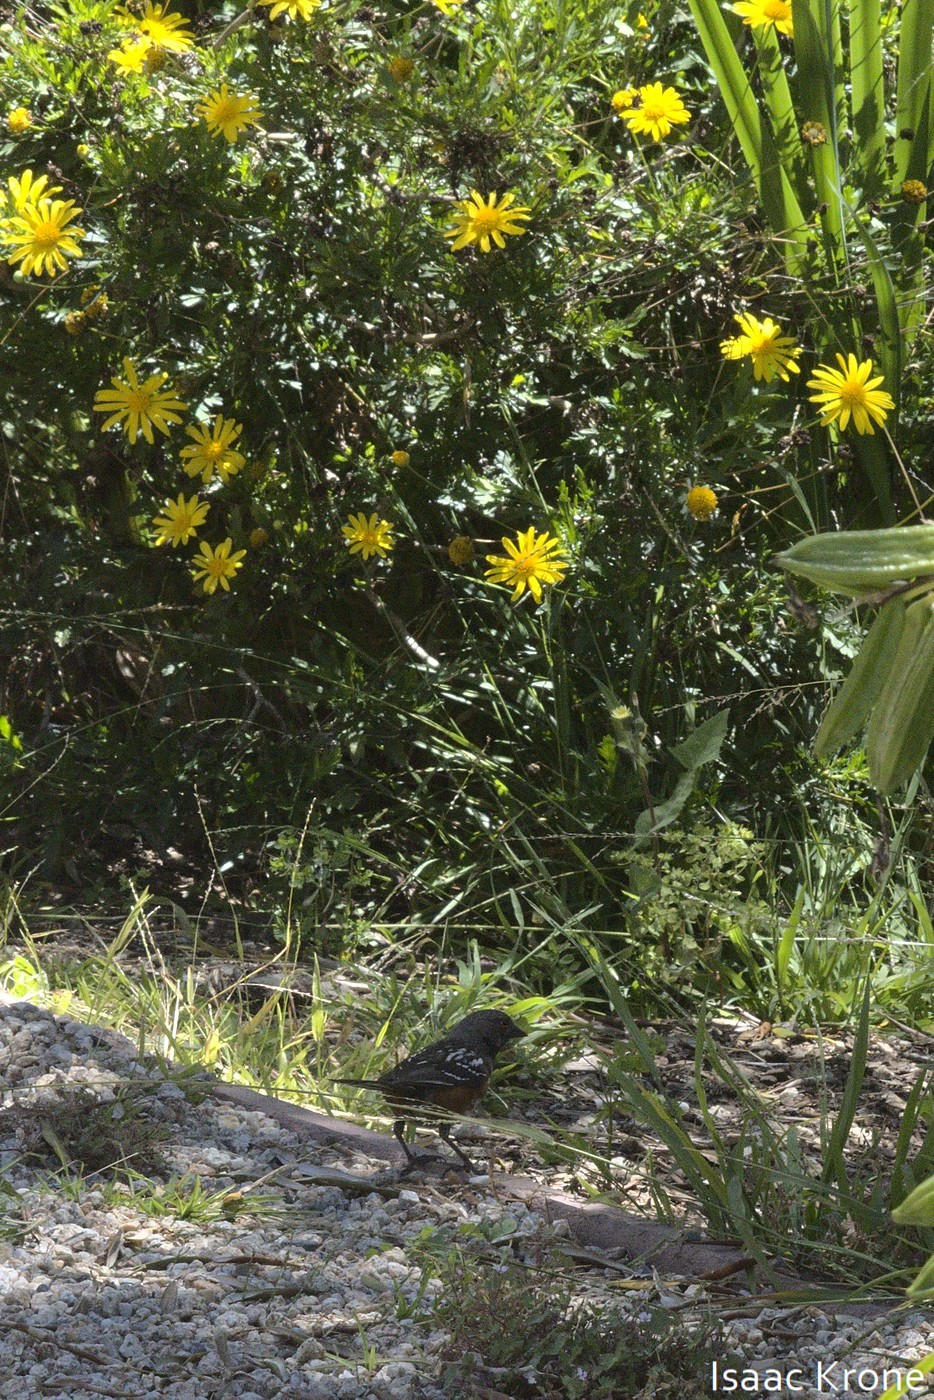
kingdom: Animalia
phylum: Chordata
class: Aves
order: Passeriformes
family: Passerellidae
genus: Pipilo
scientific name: Pipilo maculatus
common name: Spotted towhee
